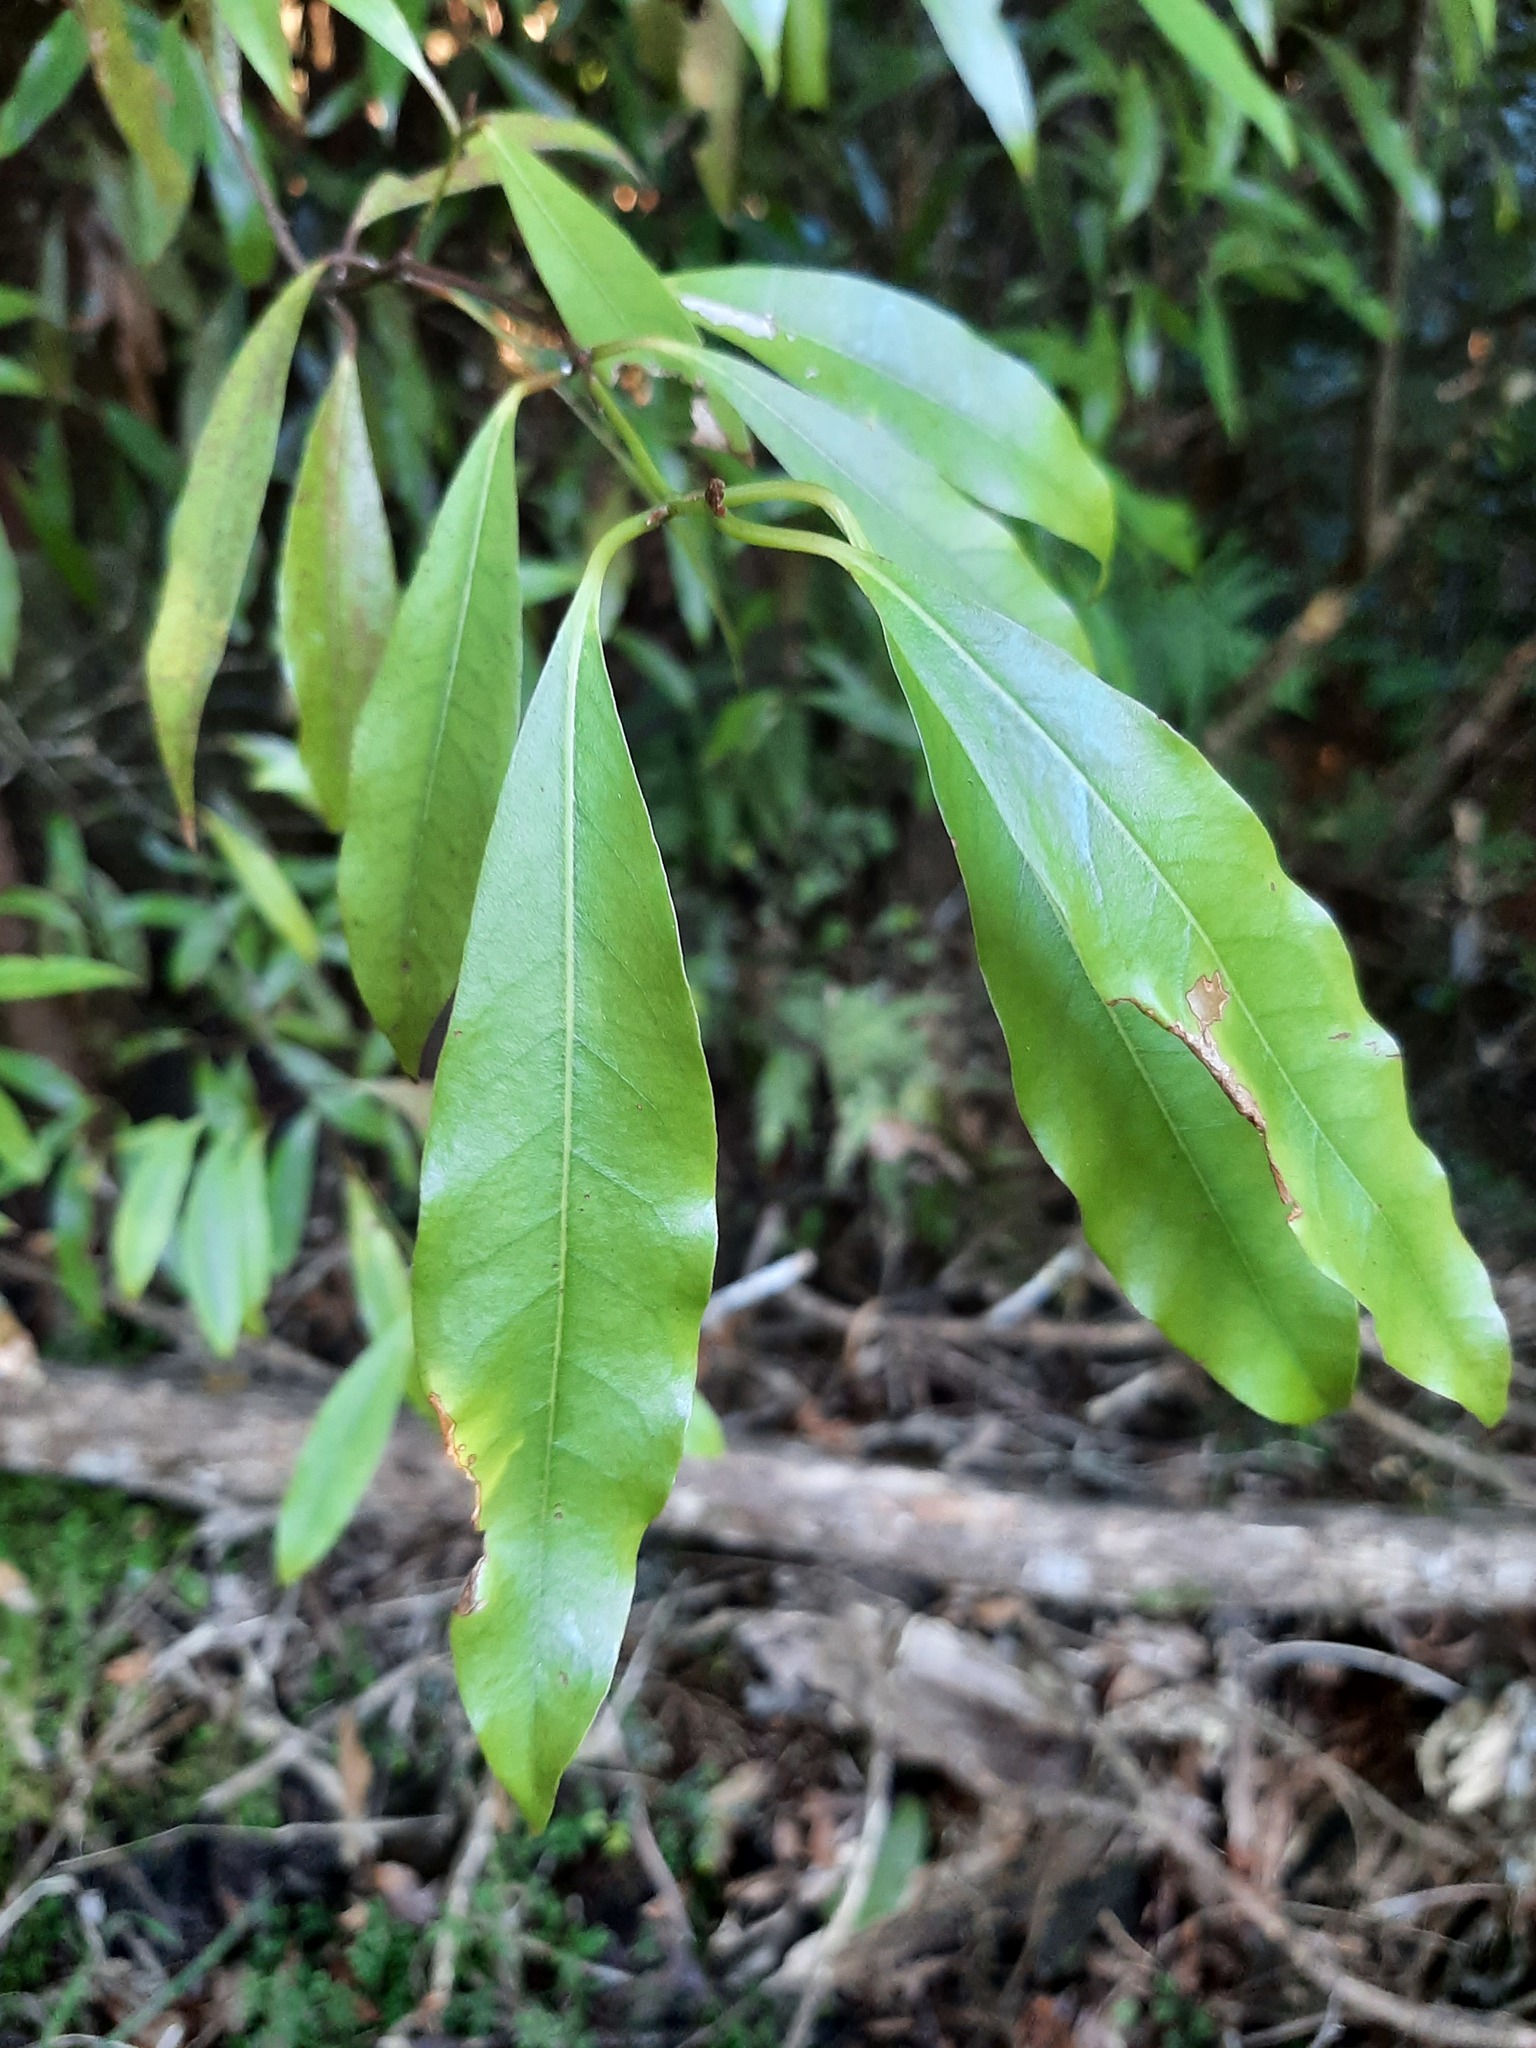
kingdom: Plantae
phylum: Tracheophyta
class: Magnoliopsida
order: Laurales
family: Lauraceae
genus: Beilschmiedia
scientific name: Beilschmiedia tawa
